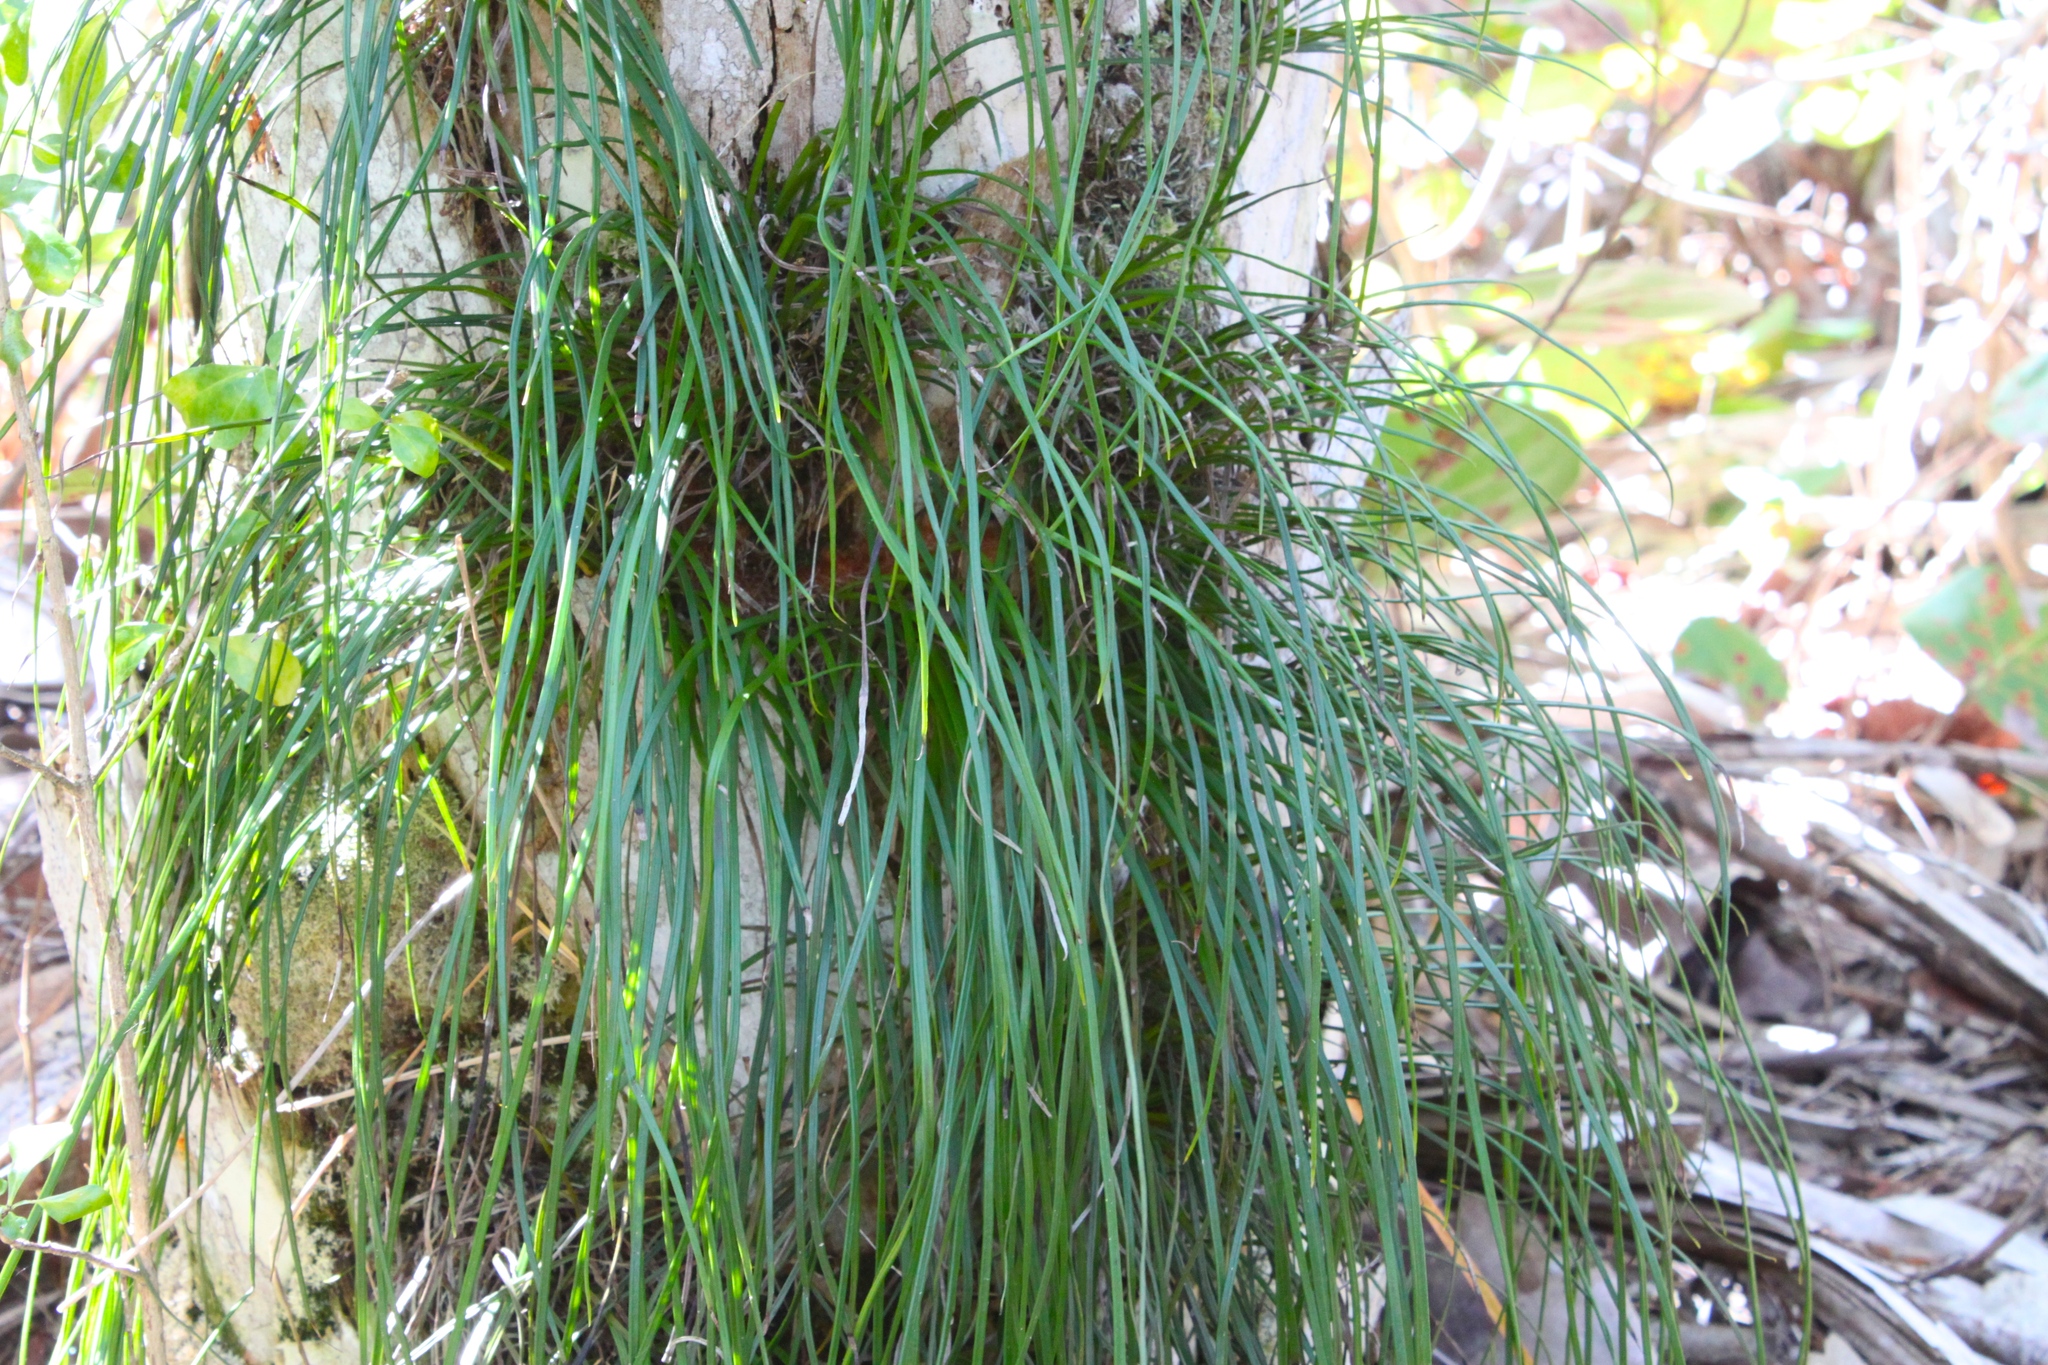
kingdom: Plantae
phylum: Tracheophyta
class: Polypodiopsida
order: Polypodiales
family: Pteridaceae
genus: Vittaria
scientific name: Vittaria lineata
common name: Shoestring fern
